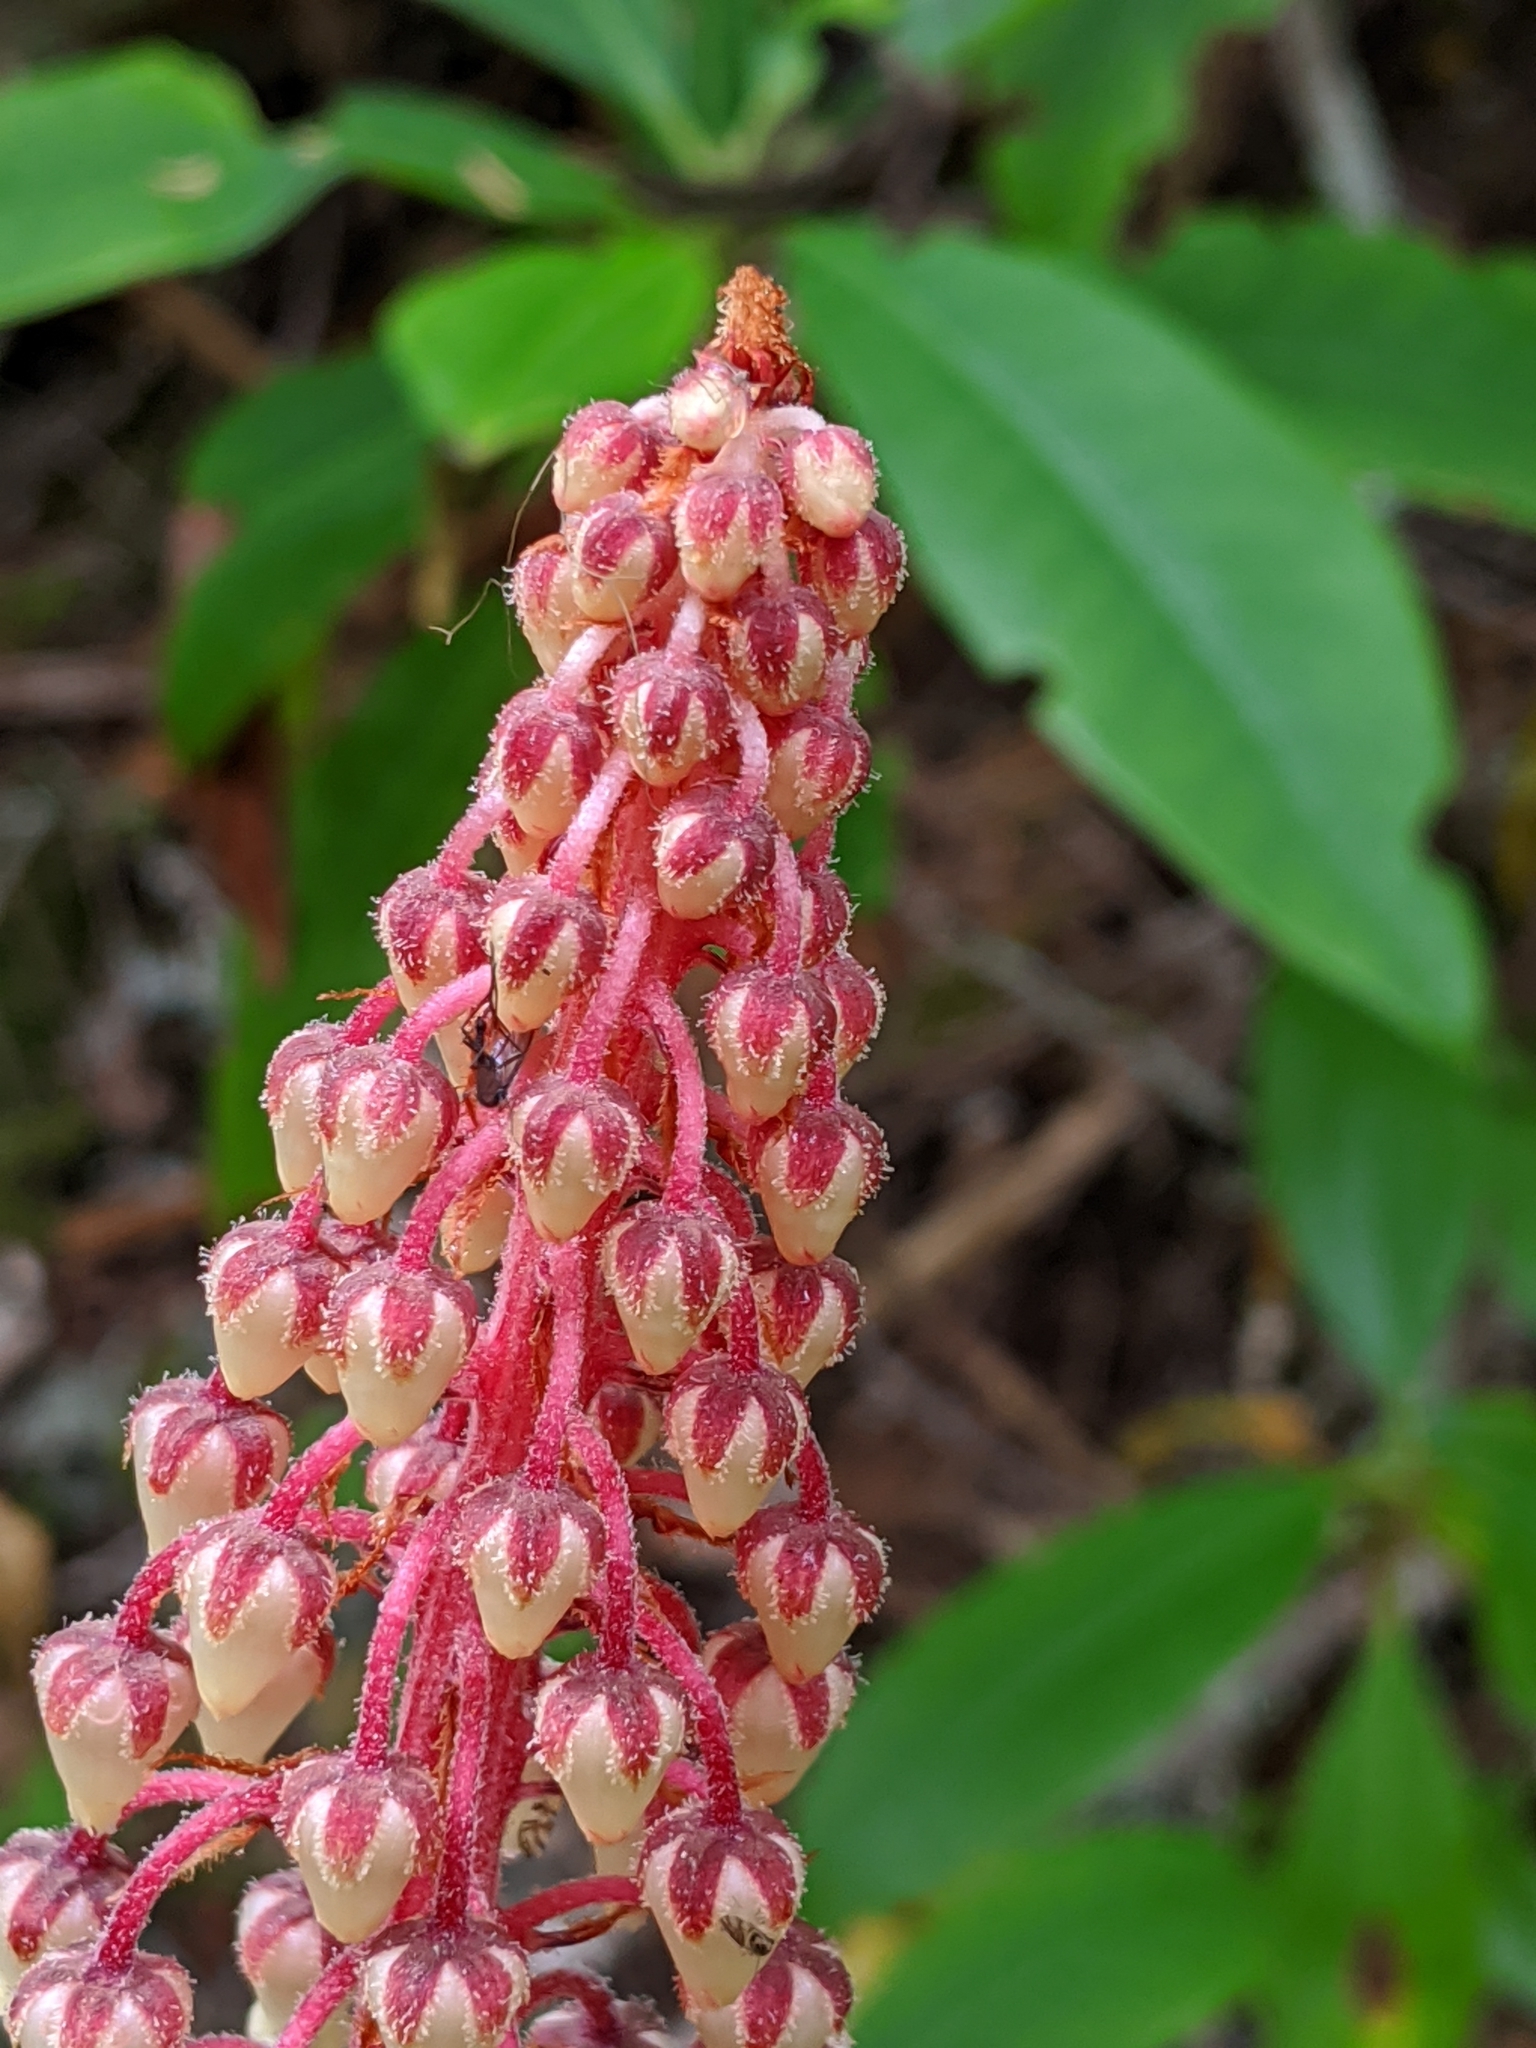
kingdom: Plantae
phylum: Tracheophyta
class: Magnoliopsida
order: Ericales
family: Ericaceae
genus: Pterospora
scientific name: Pterospora andromedea
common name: Giant bird's-nest
